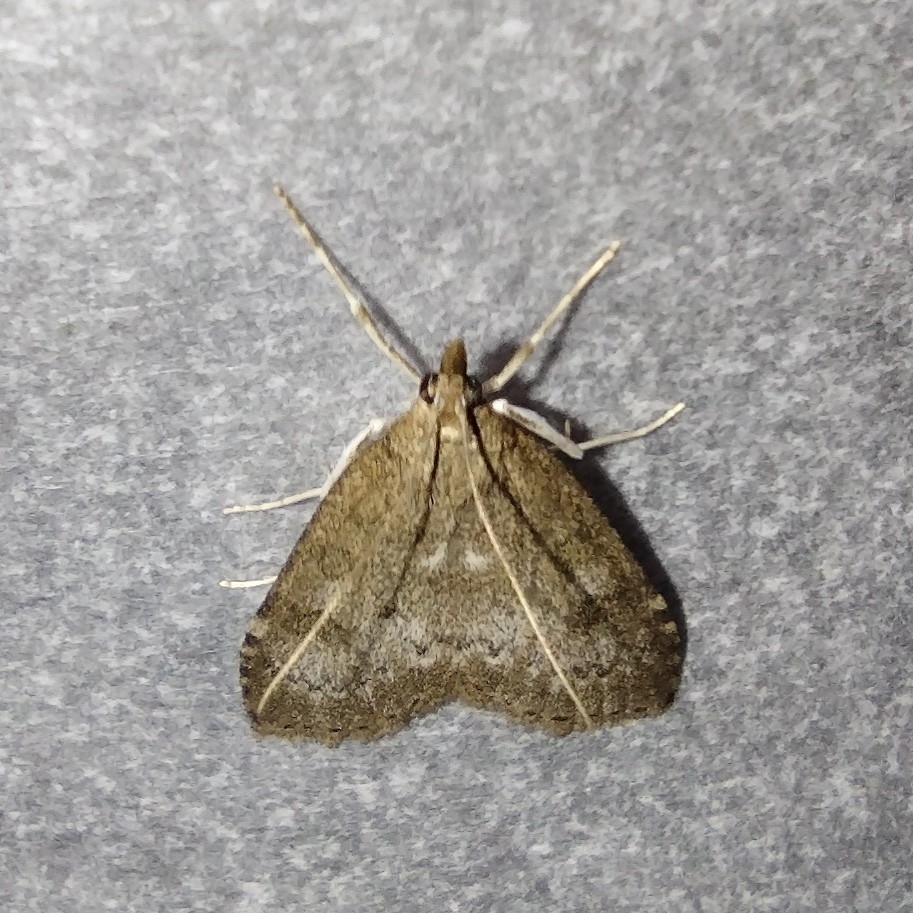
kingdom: Animalia
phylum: Arthropoda
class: Insecta
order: Lepidoptera
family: Crambidae
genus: Udea
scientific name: Udea prunalis
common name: Dusky pearl
